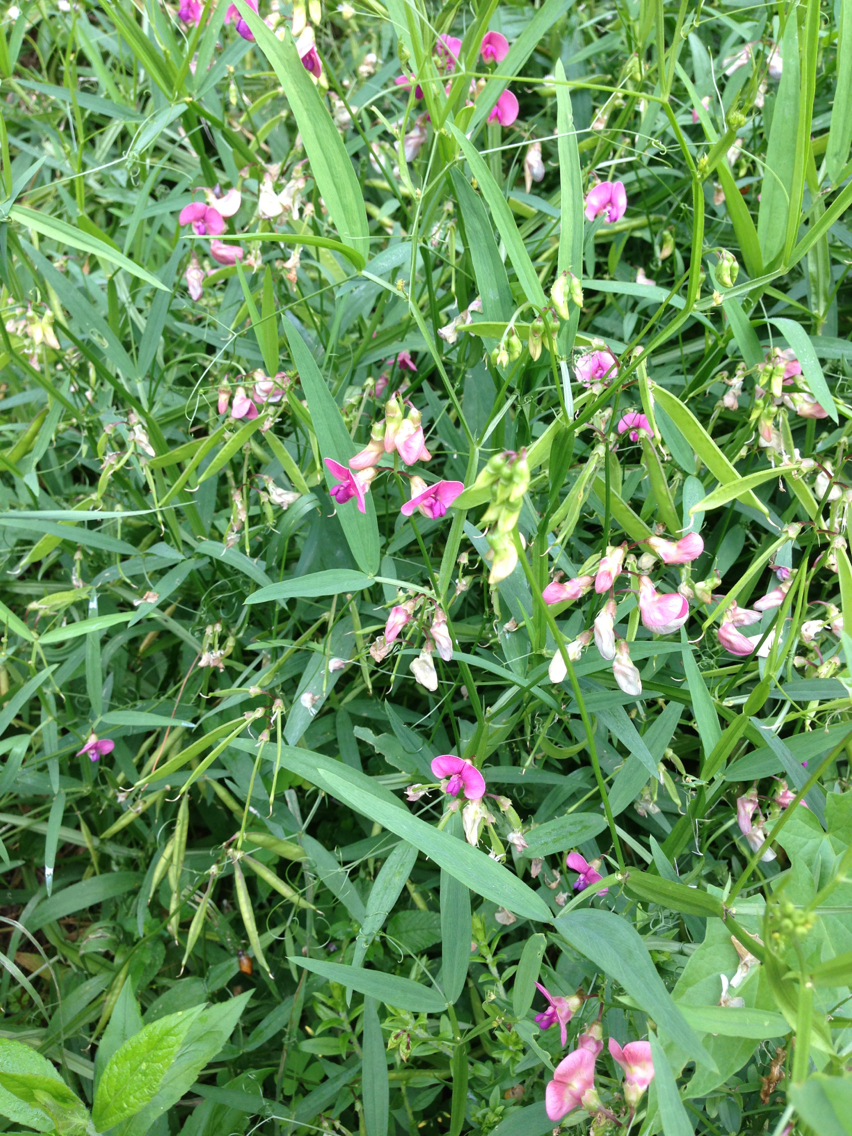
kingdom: Plantae
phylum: Tracheophyta
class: Magnoliopsida
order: Fabales
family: Fabaceae
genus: Lathyrus
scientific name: Lathyrus sylvestris
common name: Flat pea
